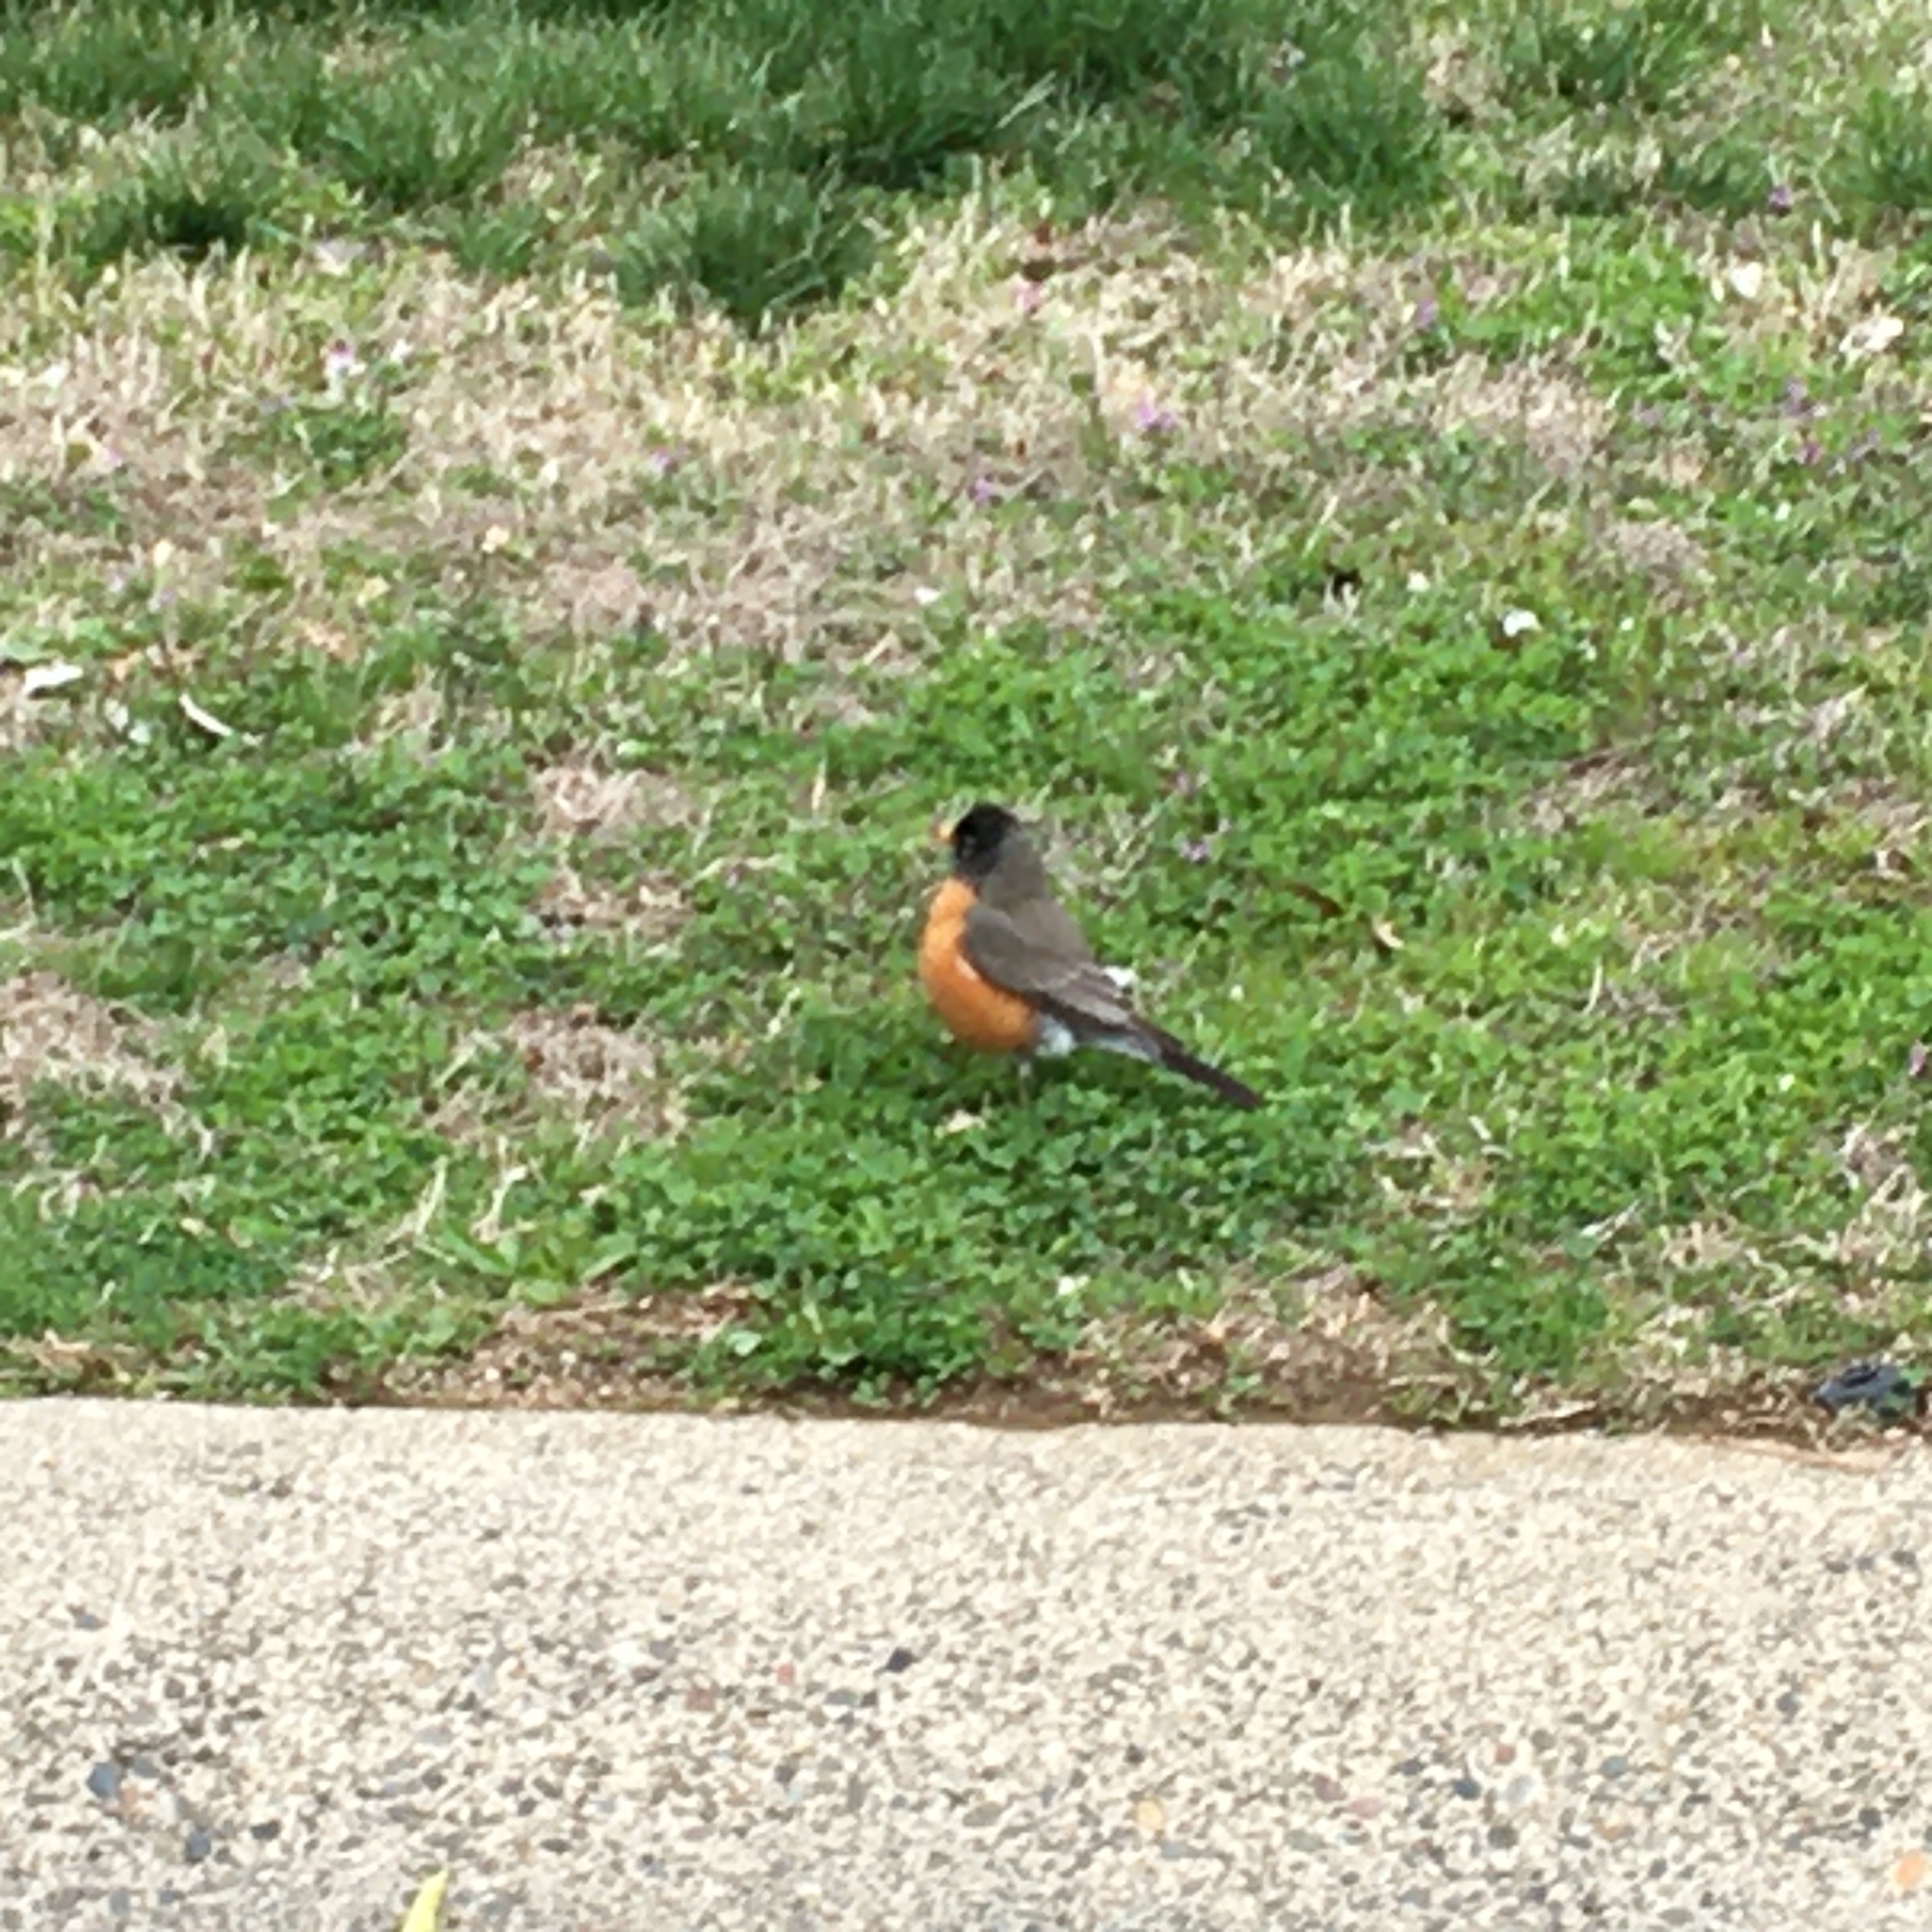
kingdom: Animalia
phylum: Chordata
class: Aves
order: Passeriformes
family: Turdidae
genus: Turdus
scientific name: Turdus migratorius
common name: American robin
